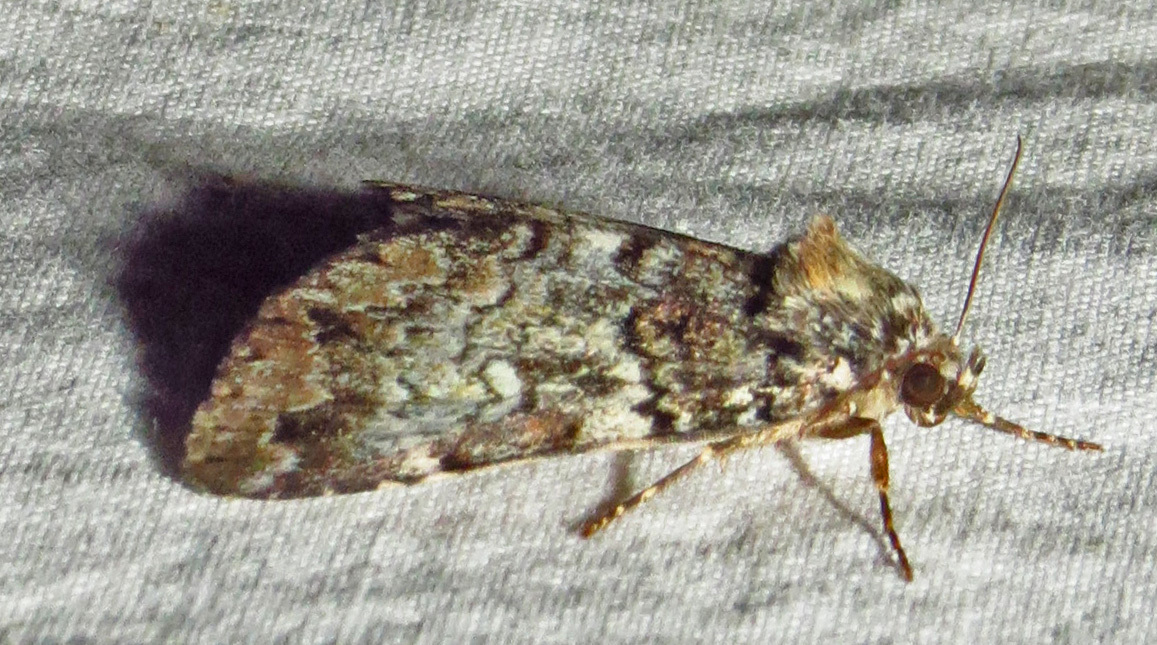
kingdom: Animalia
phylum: Arthropoda
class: Insecta
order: Lepidoptera
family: Erebidae
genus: Allotria
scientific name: Allotria elonympha
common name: False underwing
